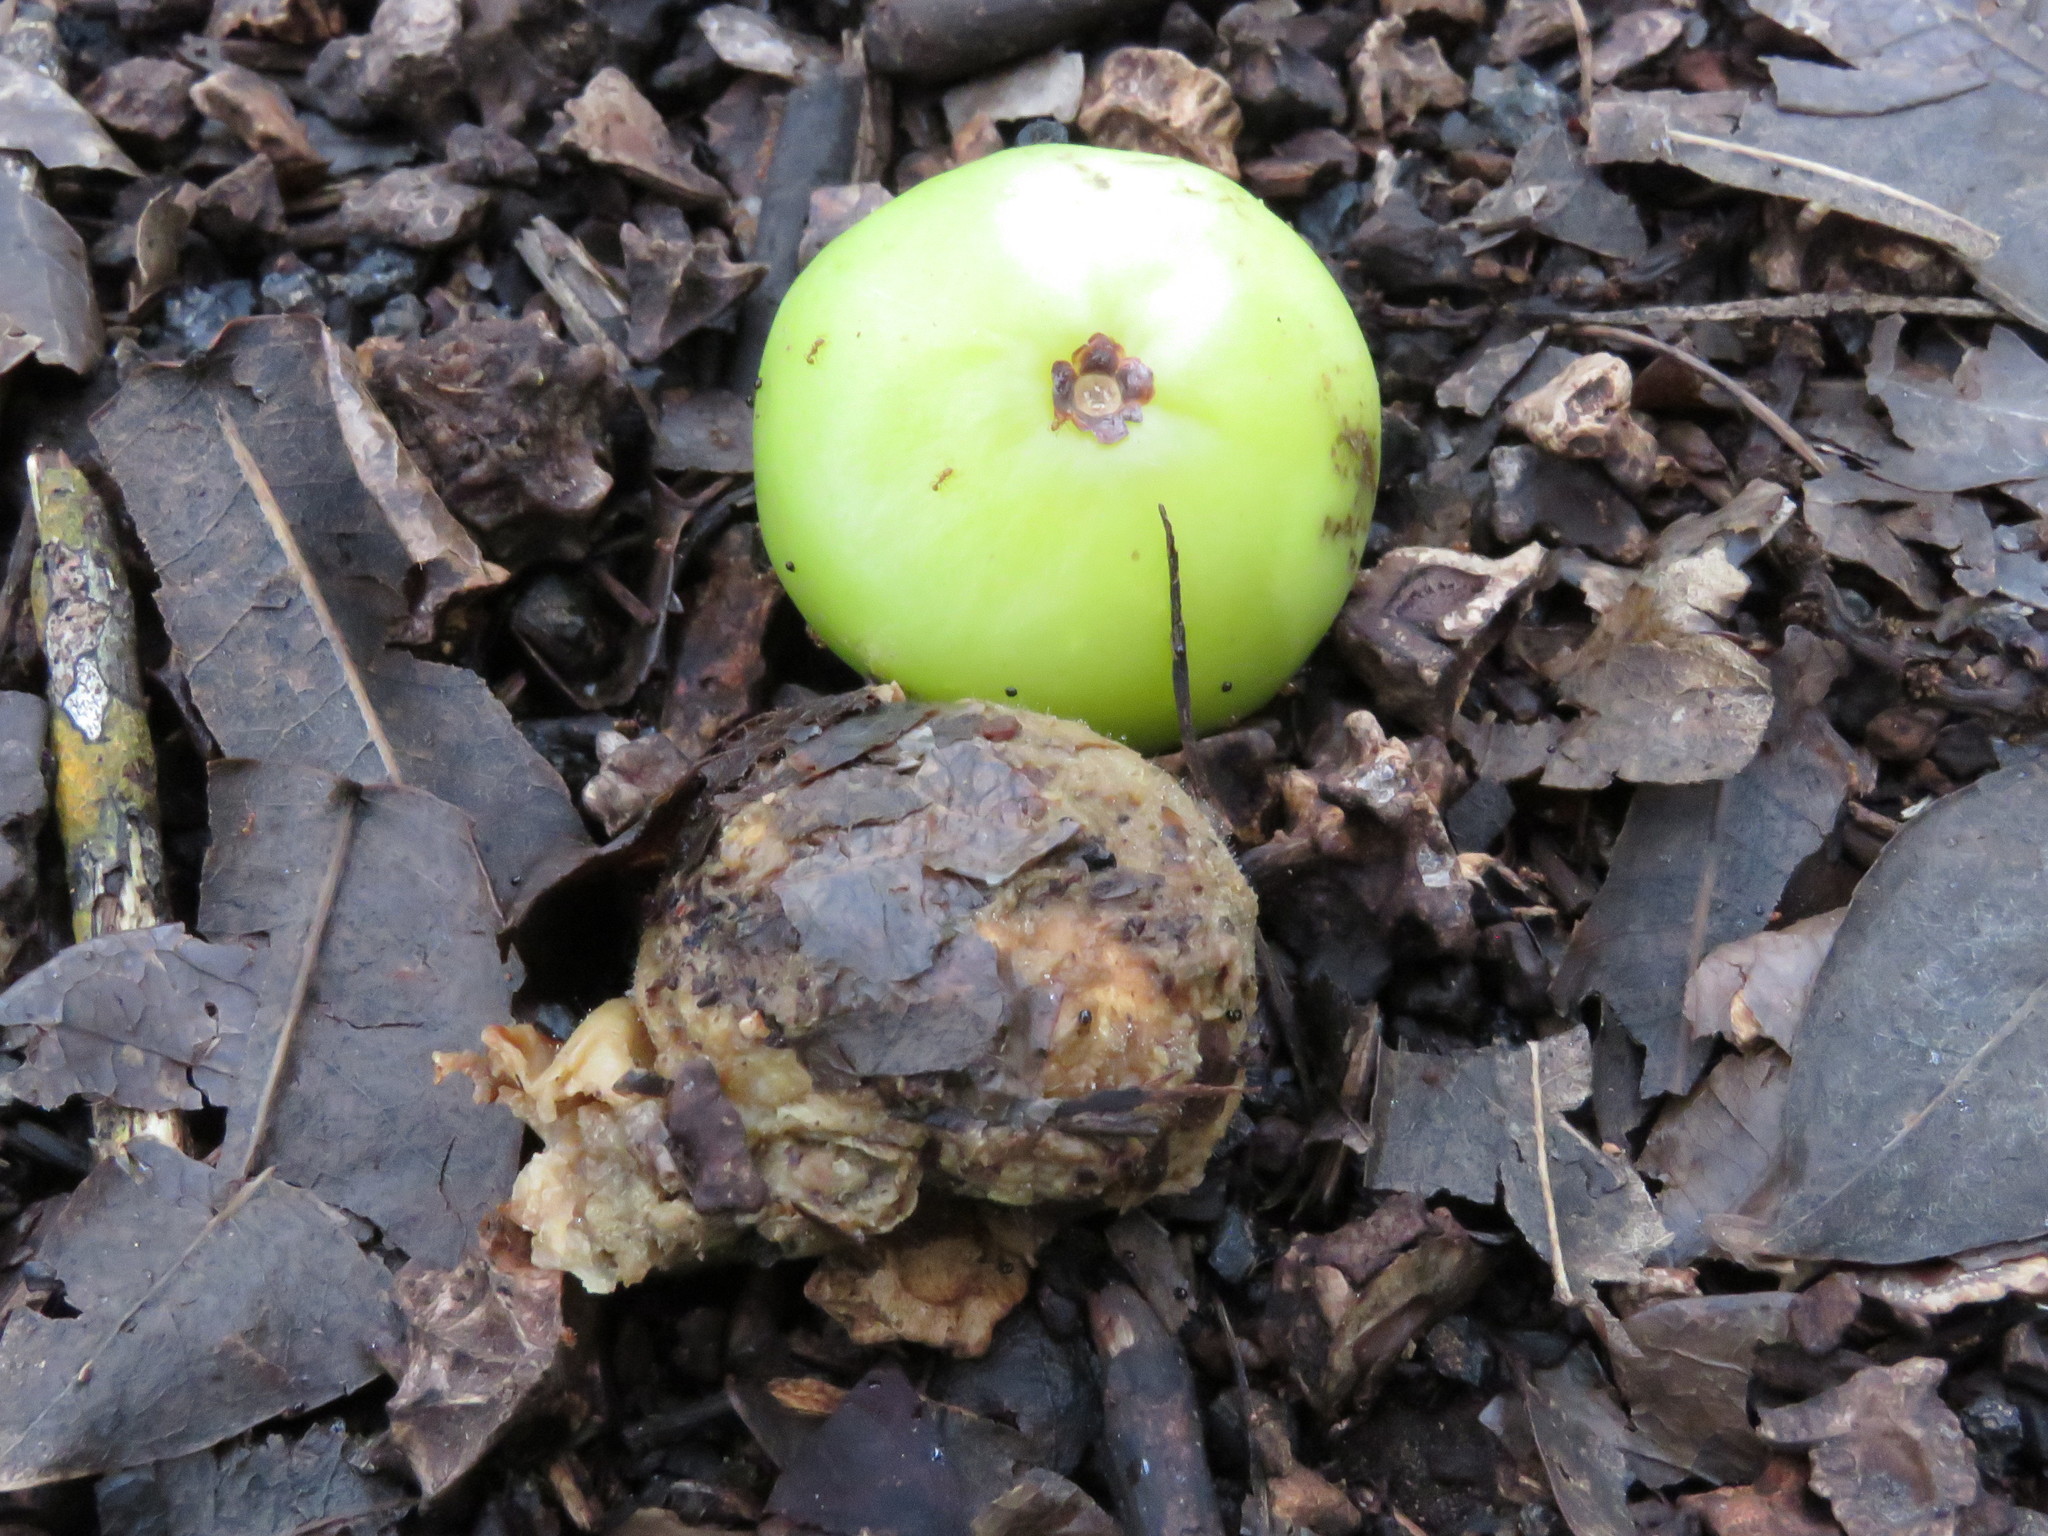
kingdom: Plantae
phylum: Tracheophyta
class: Magnoliopsida
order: Malpighiales
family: Euphorbiaceae
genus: Hippomane
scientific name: Hippomane mancinella
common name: Manchineel
